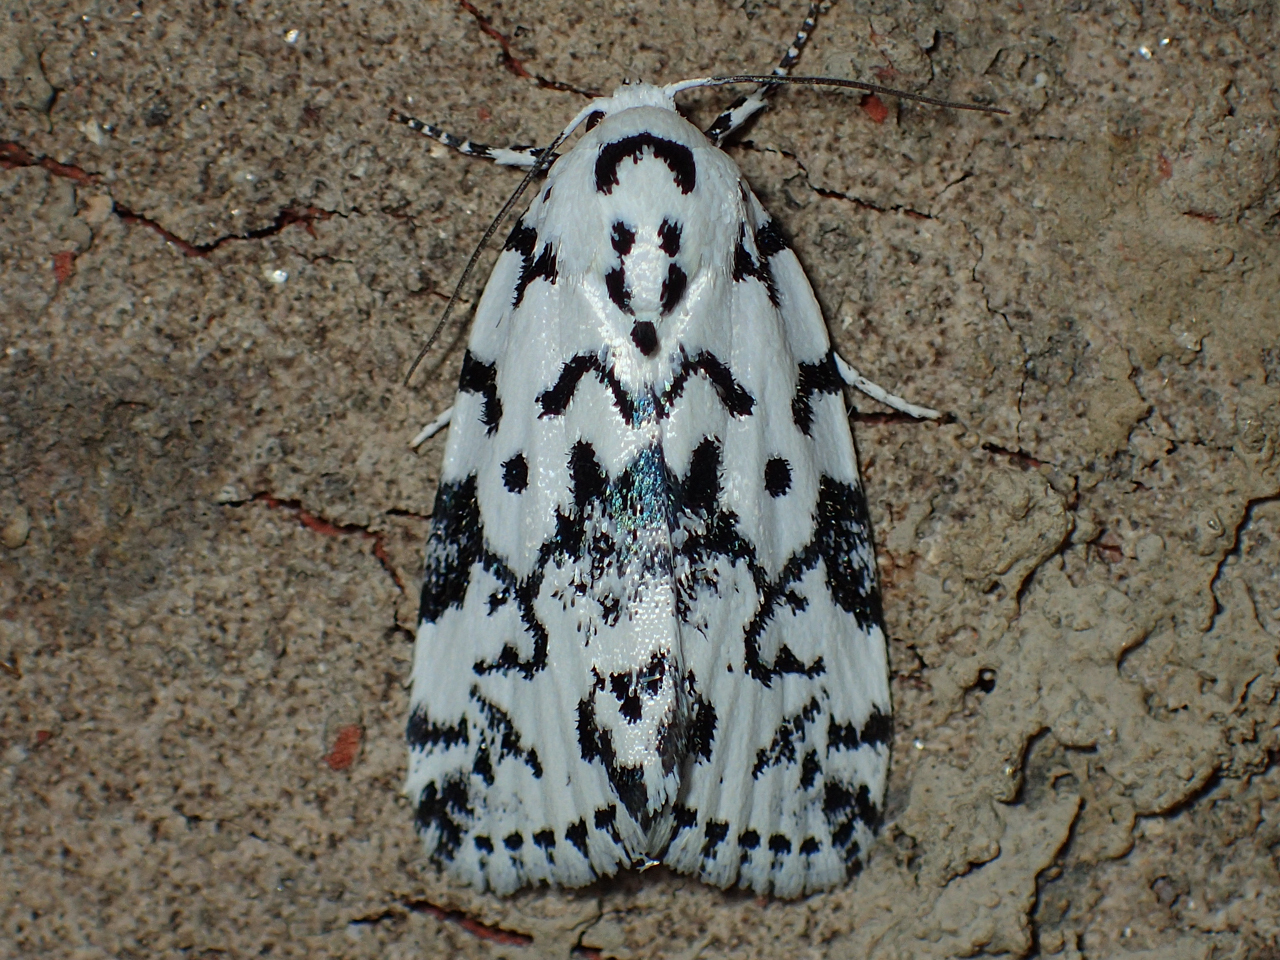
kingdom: Animalia
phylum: Arthropoda
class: Insecta
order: Lepidoptera
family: Noctuidae
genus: Polygrammate
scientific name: Polygrammate hebraeicum
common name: Hebrew moth
